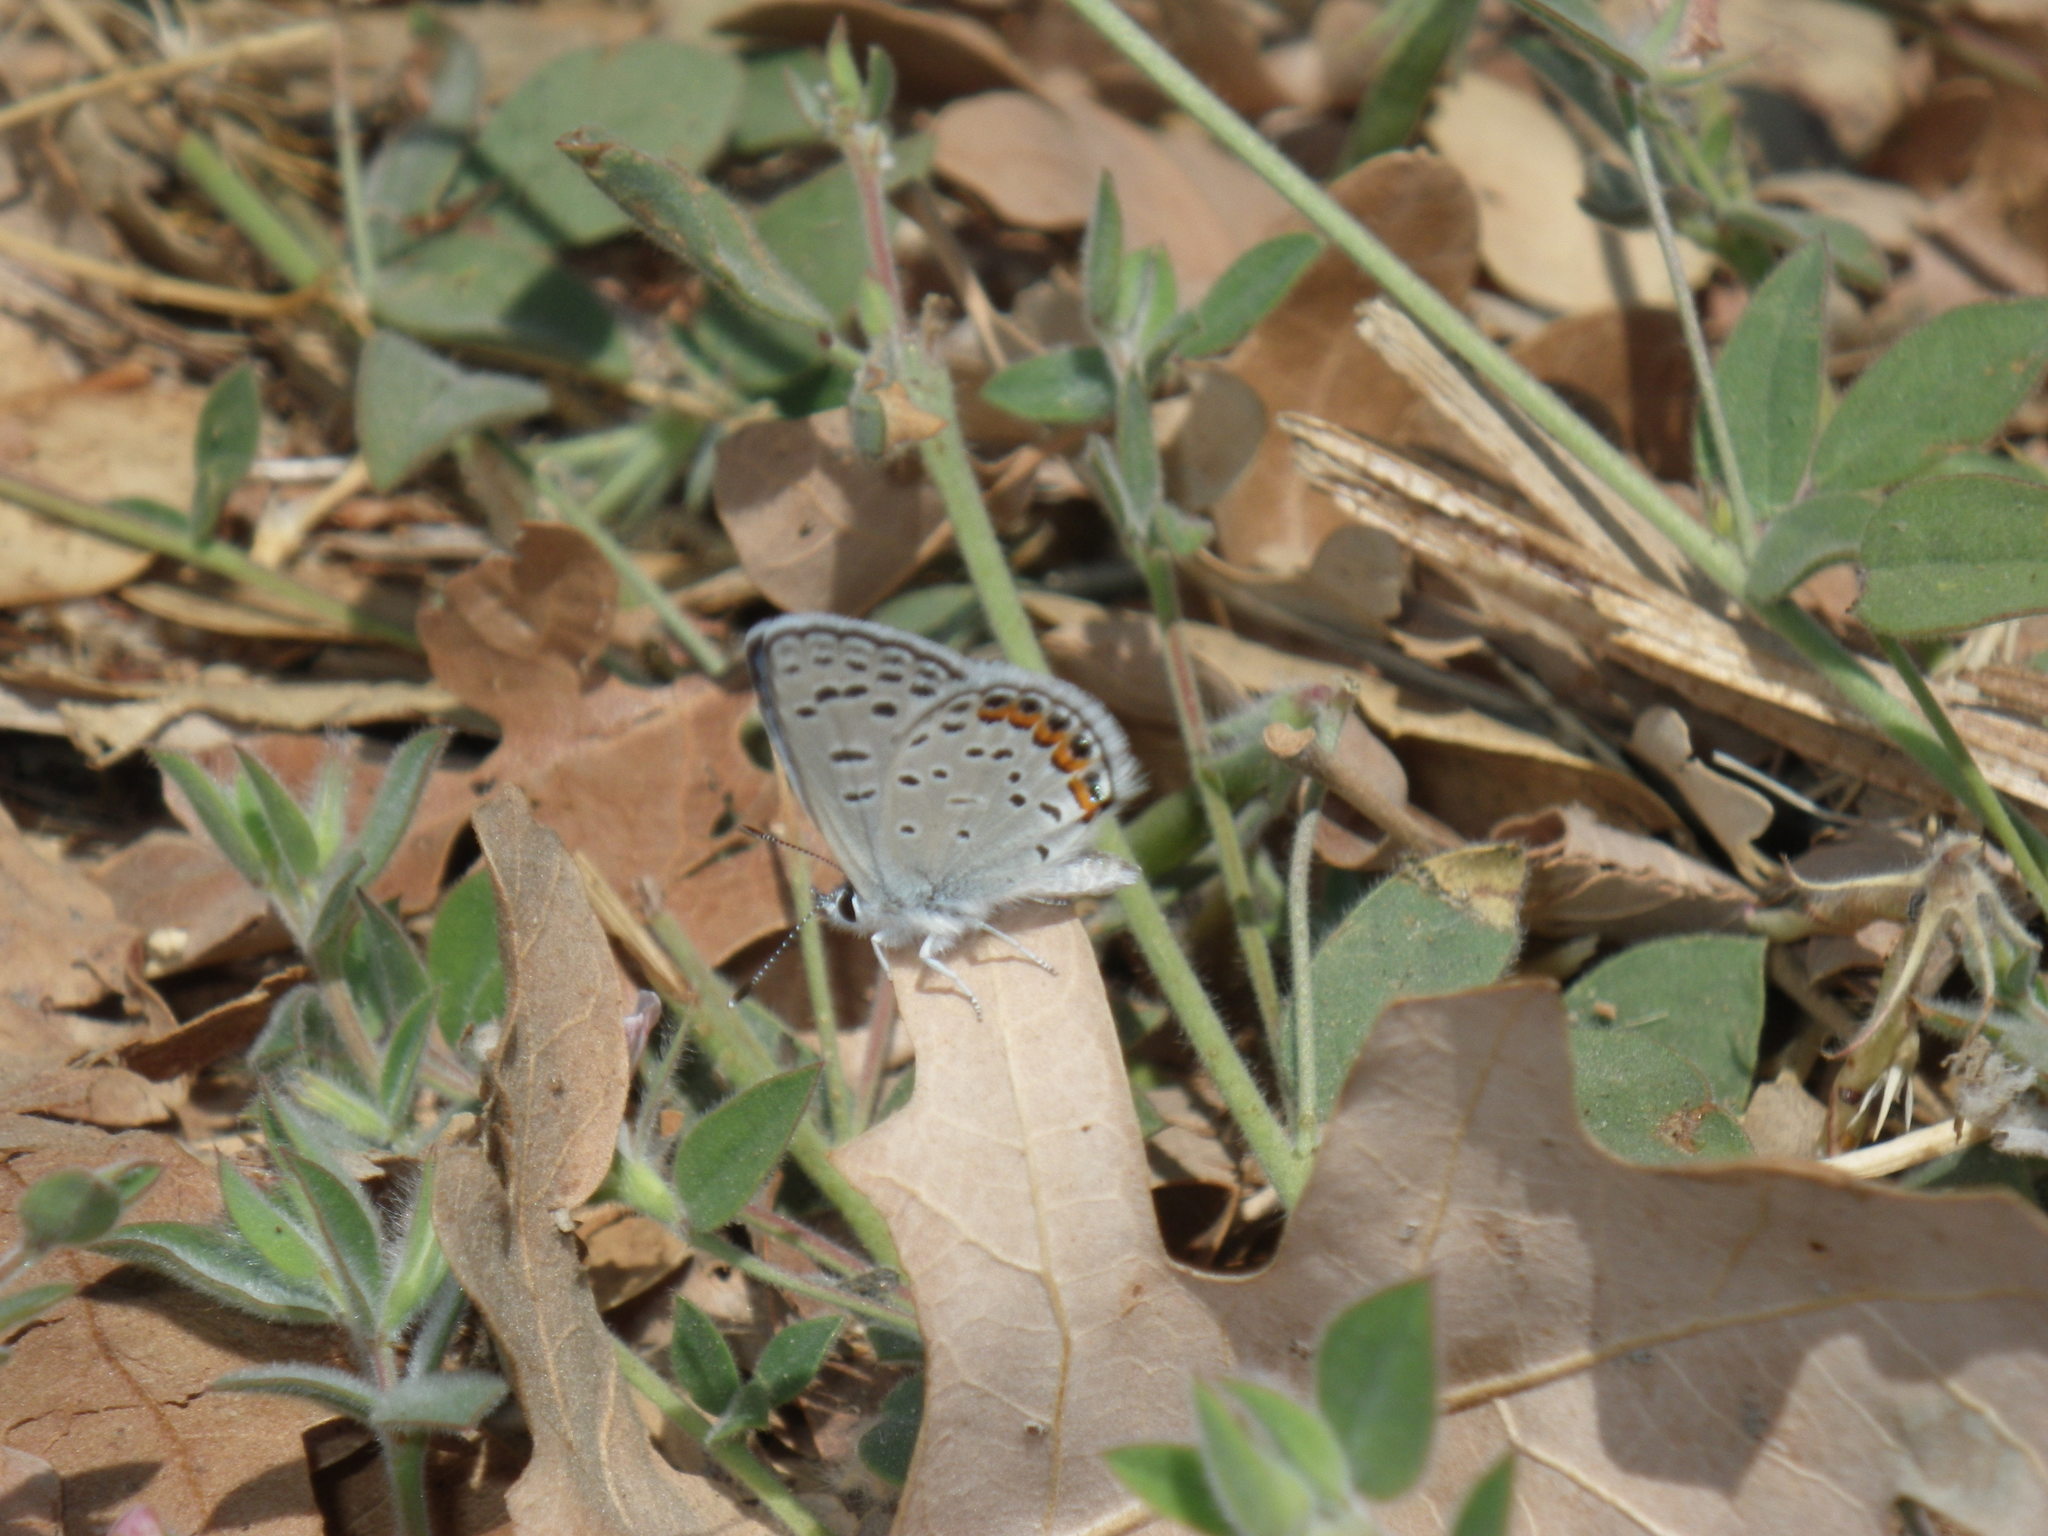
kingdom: Animalia
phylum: Arthropoda
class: Insecta
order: Lepidoptera
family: Lycaenidae
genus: Icaricia
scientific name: Icaricia acmon
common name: Acmon blue
